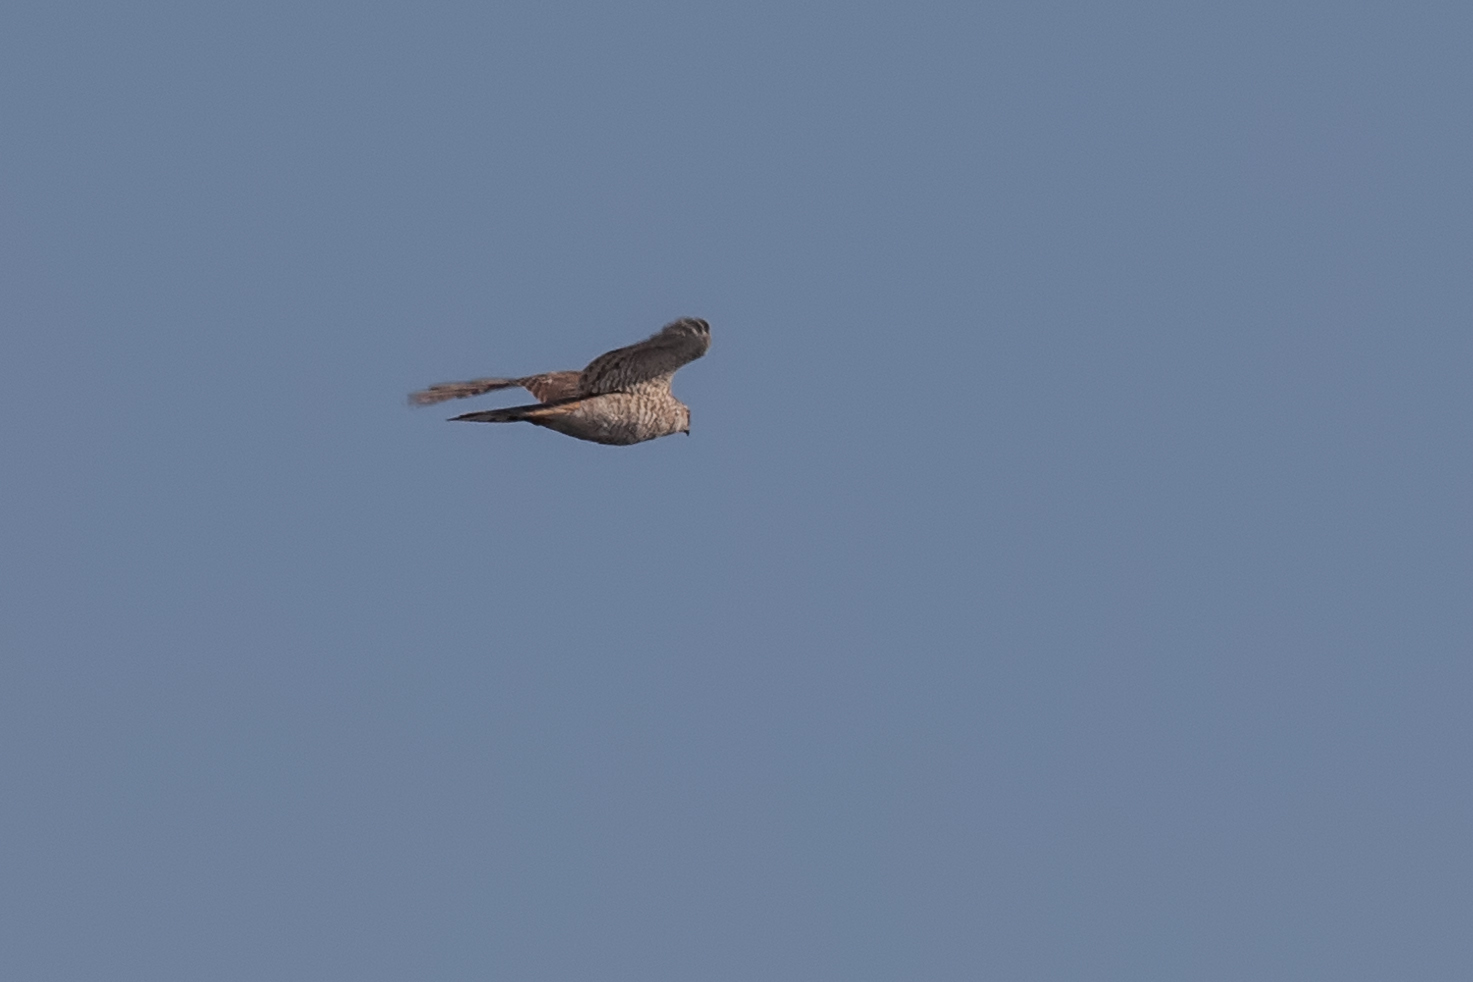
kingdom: Animalia
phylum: Chordata
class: Aves
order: Accipitriformes
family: Accipitridae
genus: Accipiter
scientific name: Accipiter nisus
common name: Eurasian sparrowhawk
